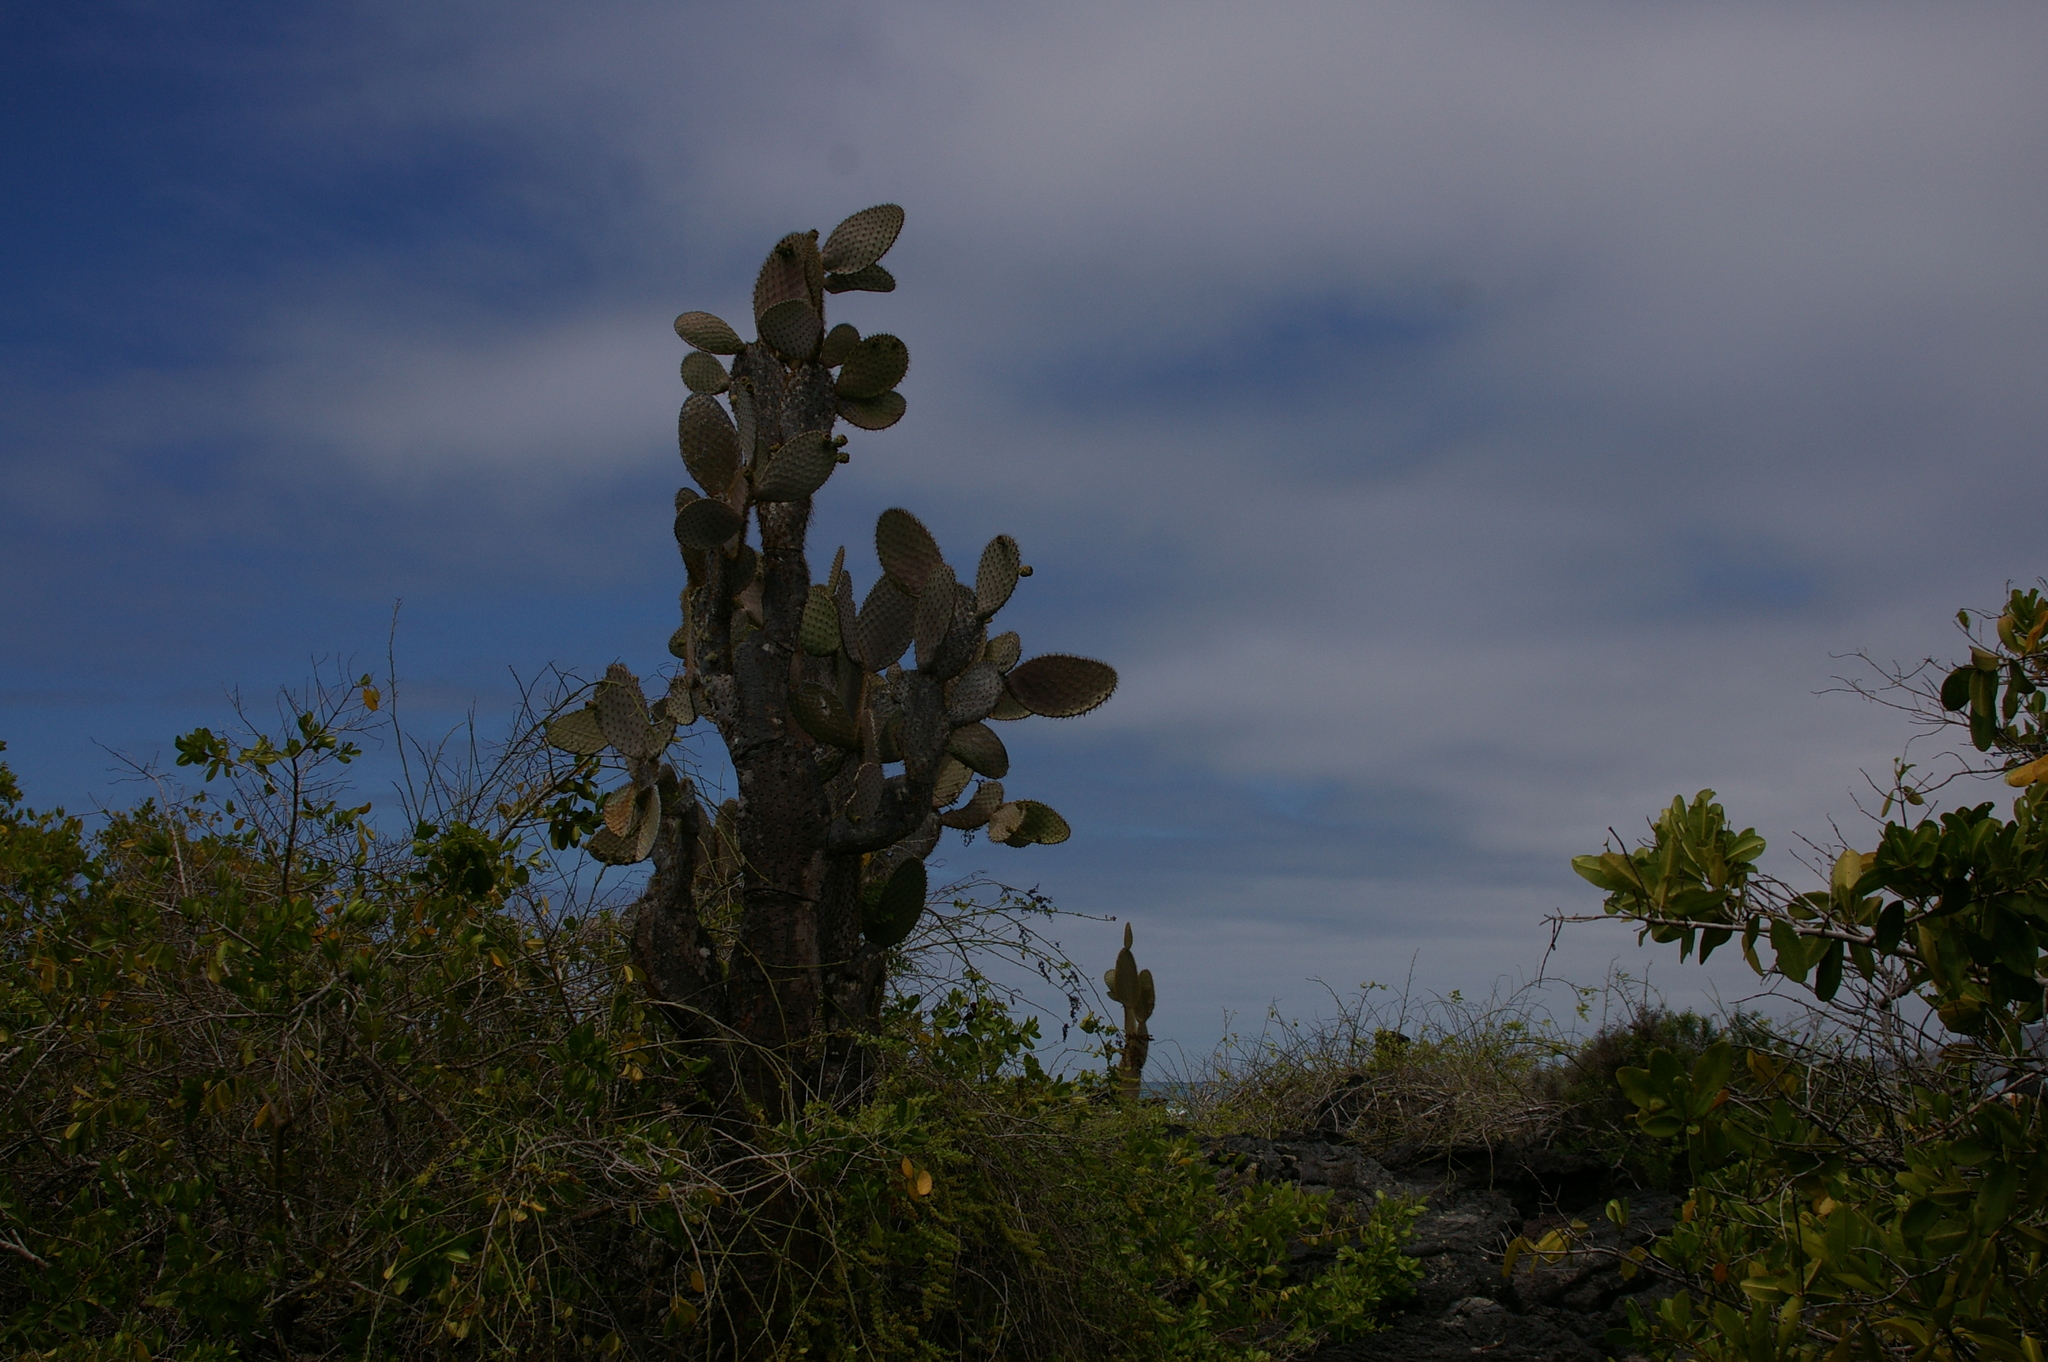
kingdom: Plantae
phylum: Tracheophyta
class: Magnoliopsida
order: Caryophyllales
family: Cactaceae
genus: Opuntia
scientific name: Opuntia galapageia
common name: Galápagos prickly pear
